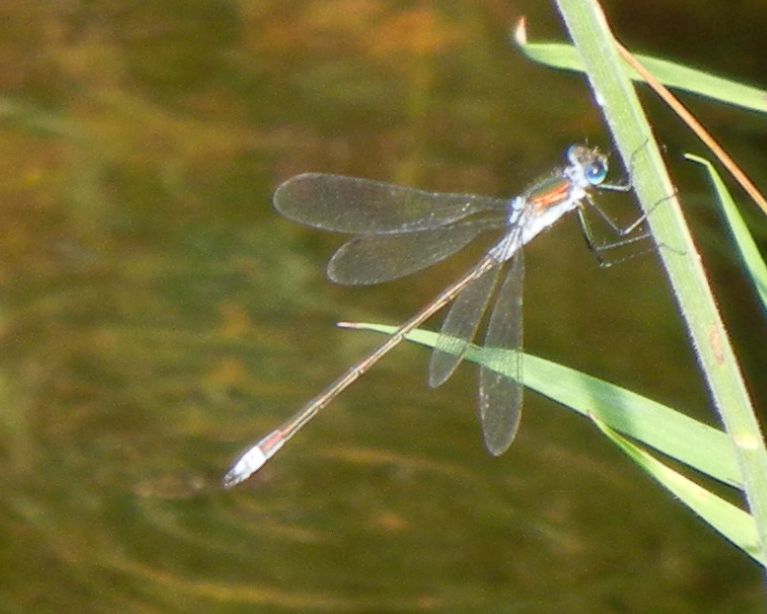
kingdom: Animalia
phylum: Arthropoda
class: Insecta
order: Odonata
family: Lestidae
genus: Lestes
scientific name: Lestes sponsa
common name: Common spreadwing
